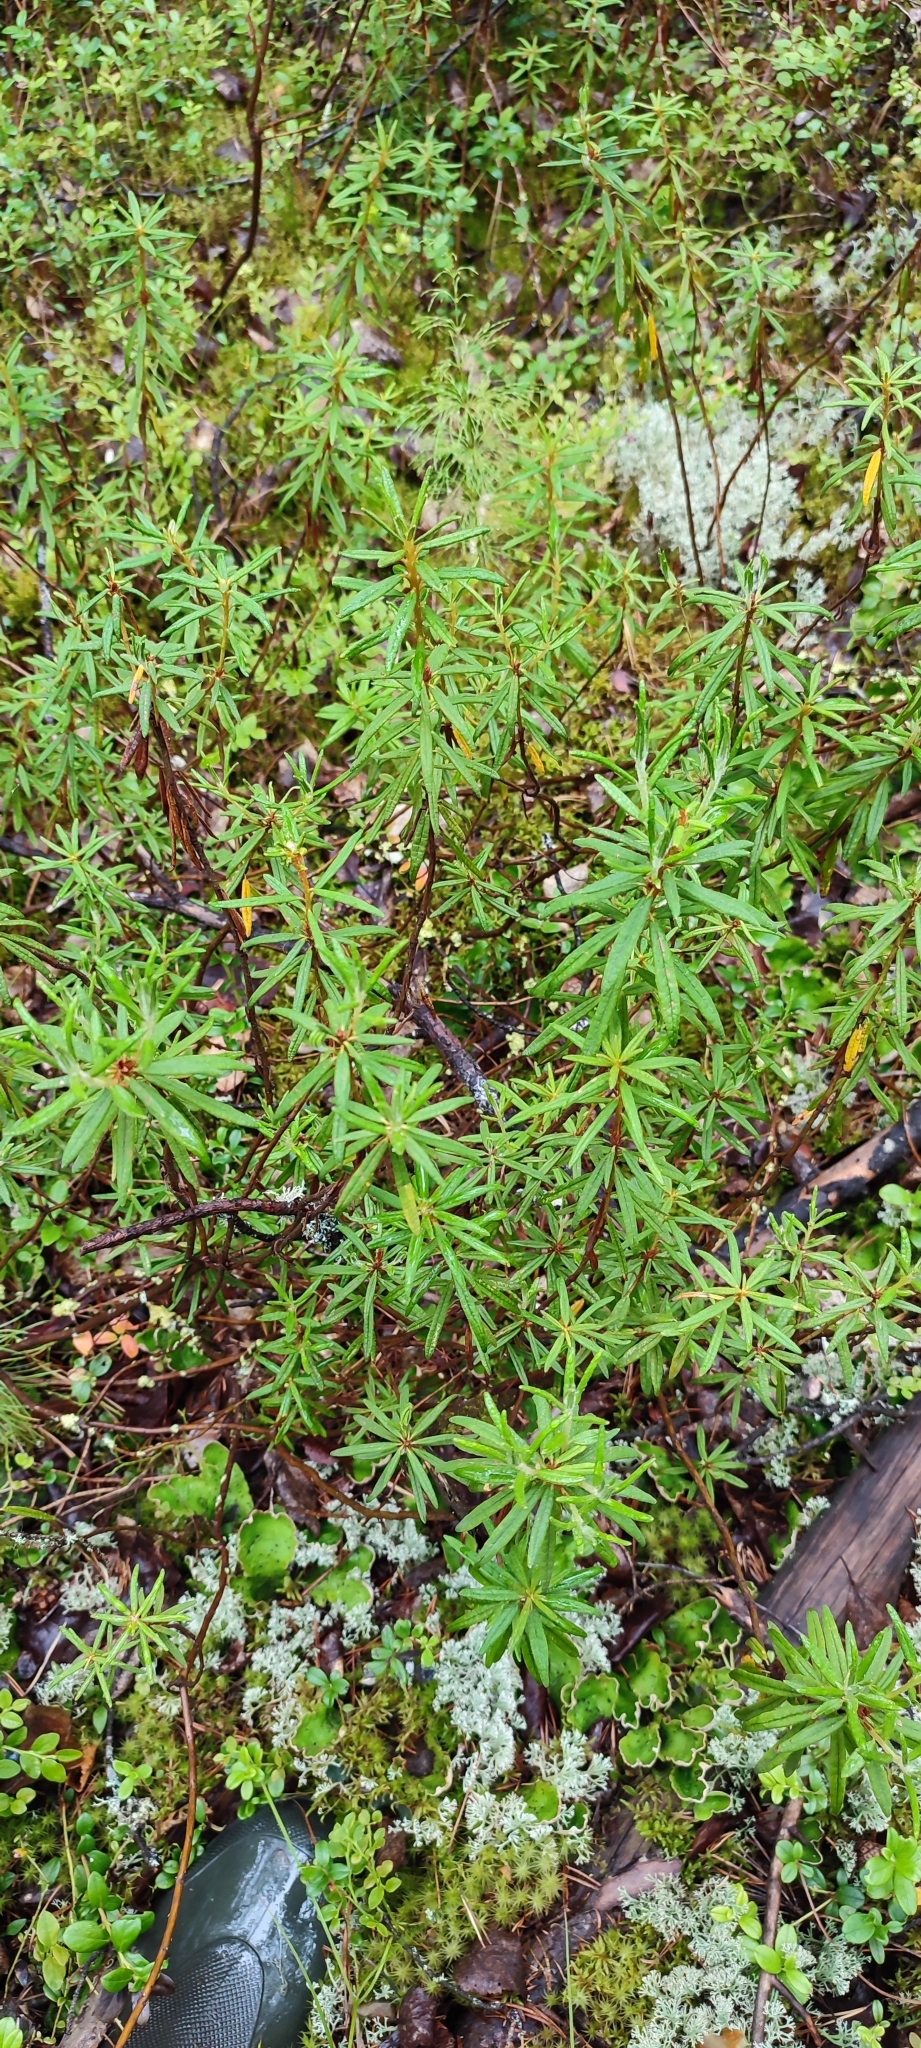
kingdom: Plantae
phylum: Tracheophyta
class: Magnoliopsida
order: Ericales
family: Ericaceae
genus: Rhododendron
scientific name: Rhododendron tomentosum
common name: Marsh labrador tea
